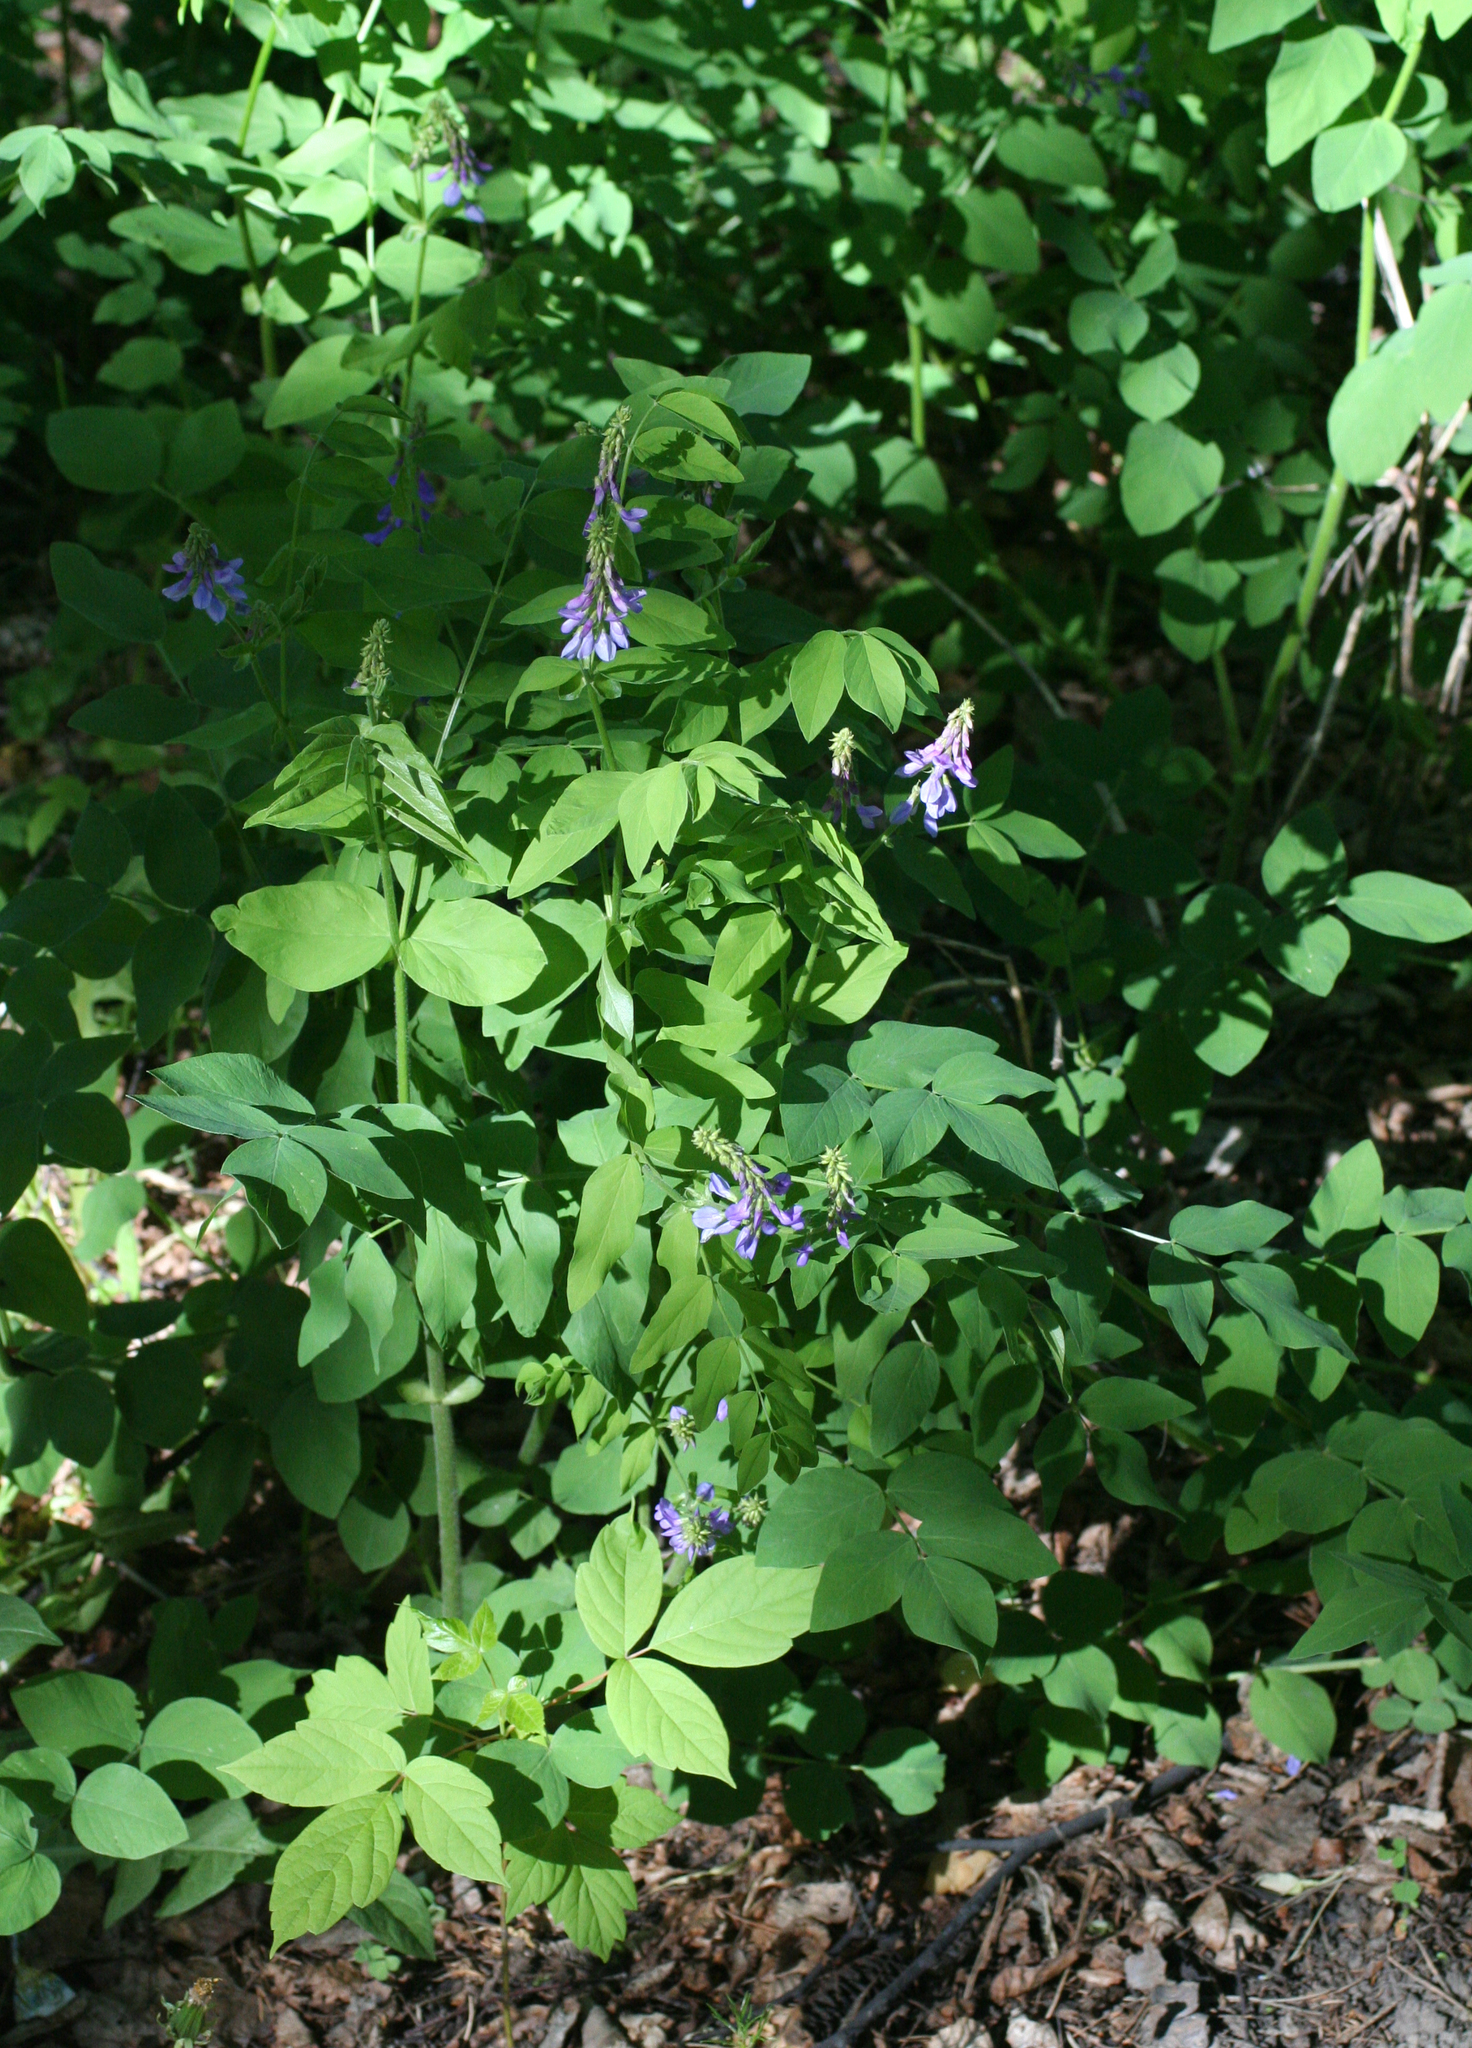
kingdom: Plantae
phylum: Tracheophyta
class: Magnoliopsida
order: Fabales
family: Fabaceae
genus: Galega
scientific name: Galega orientalis
